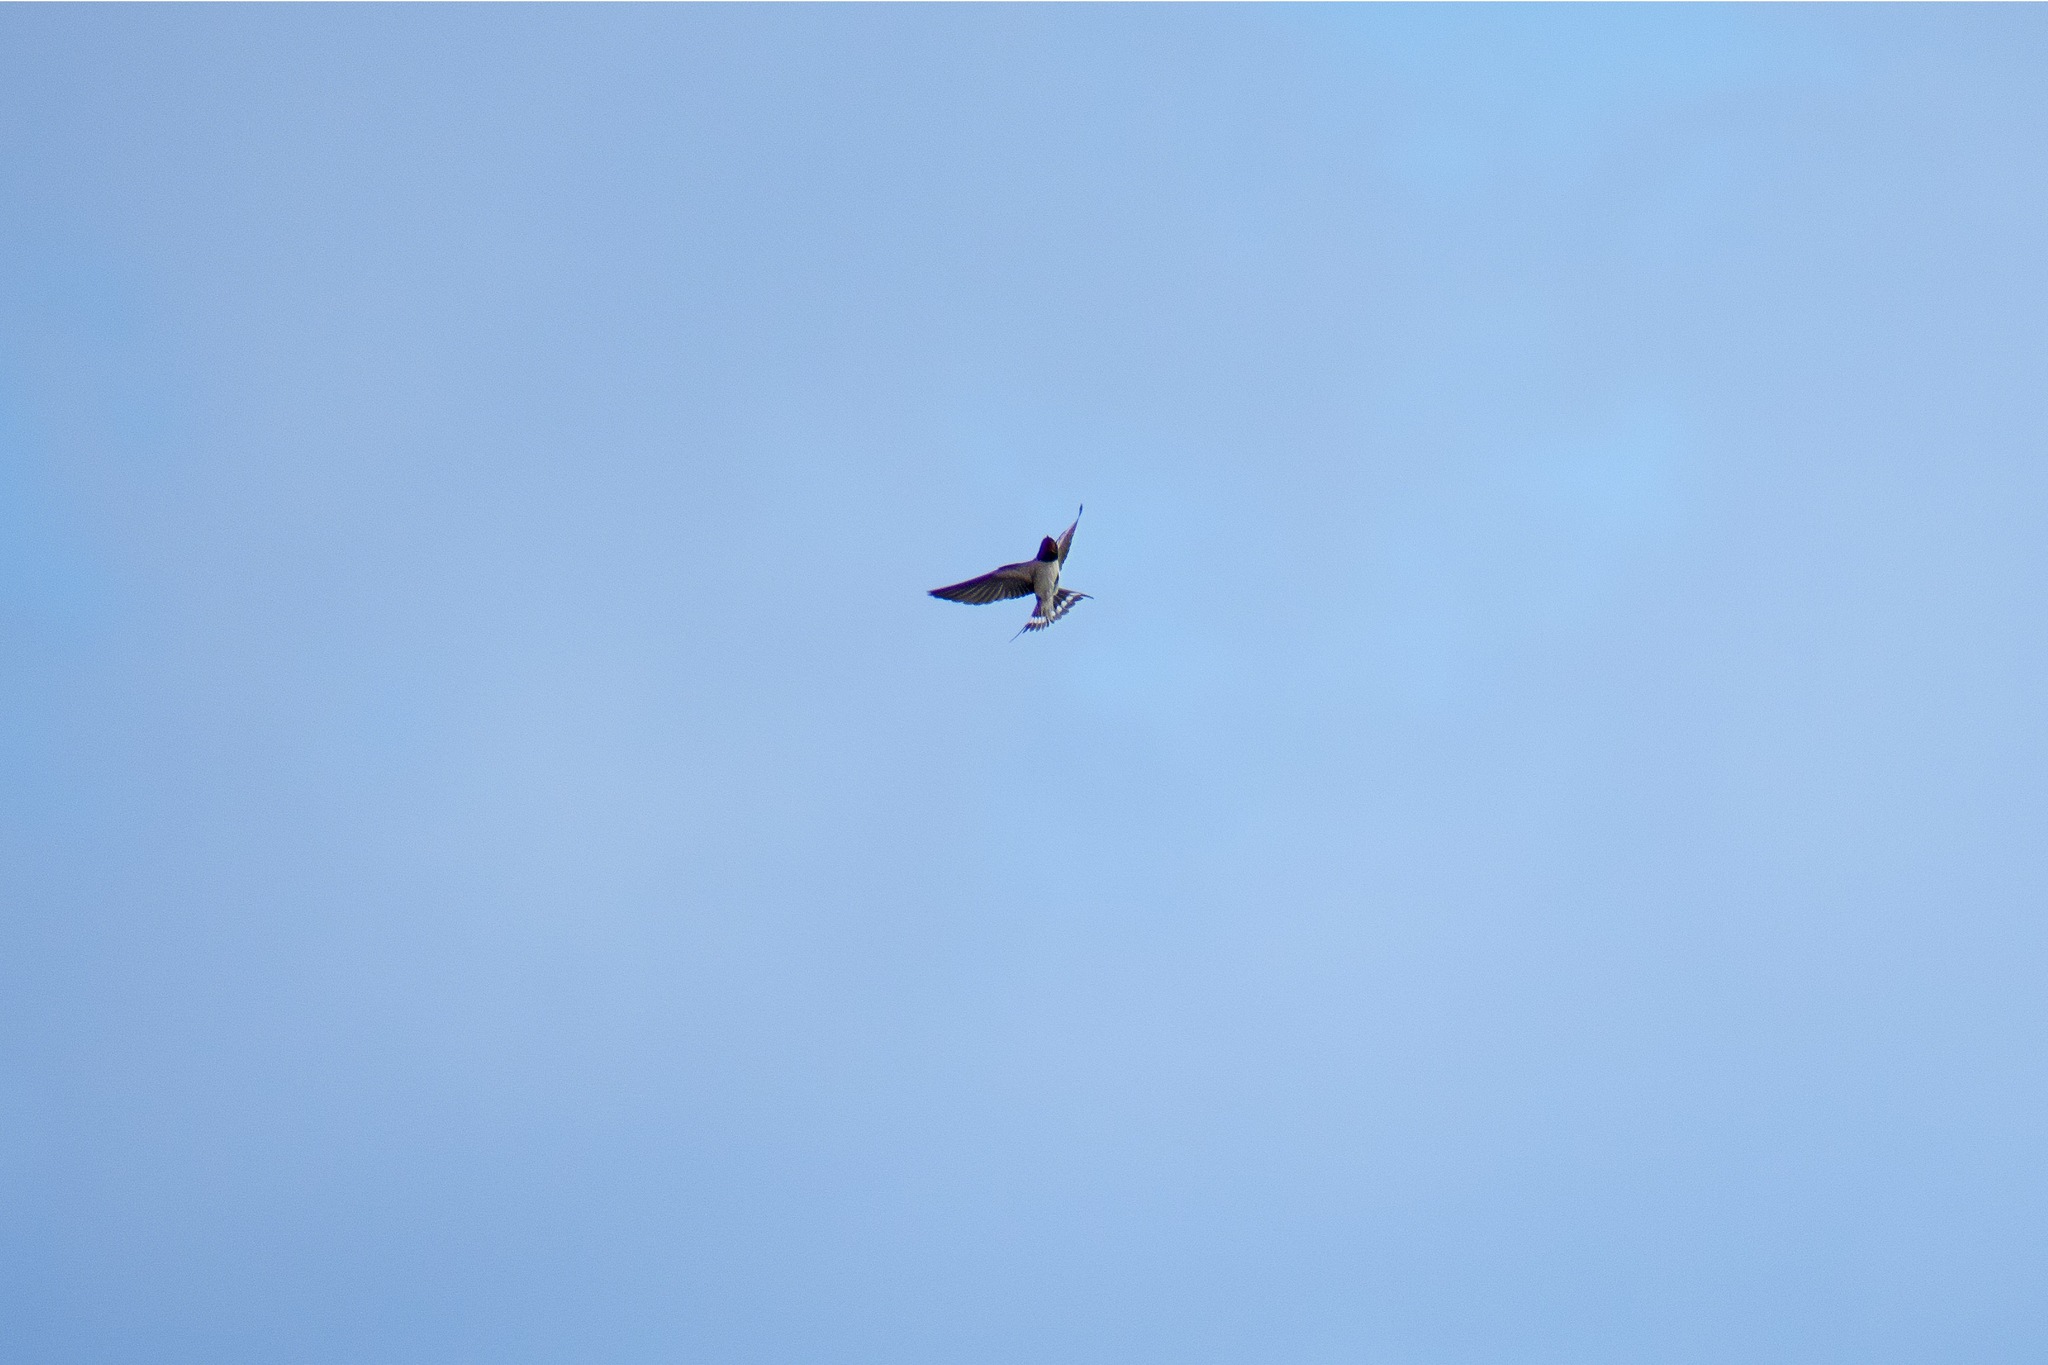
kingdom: Animalia
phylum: Chordata
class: Aves
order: Passeriformes
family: Hirundinidae
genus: Hirundo
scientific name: Hirundo rustica
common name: Barn swallow
